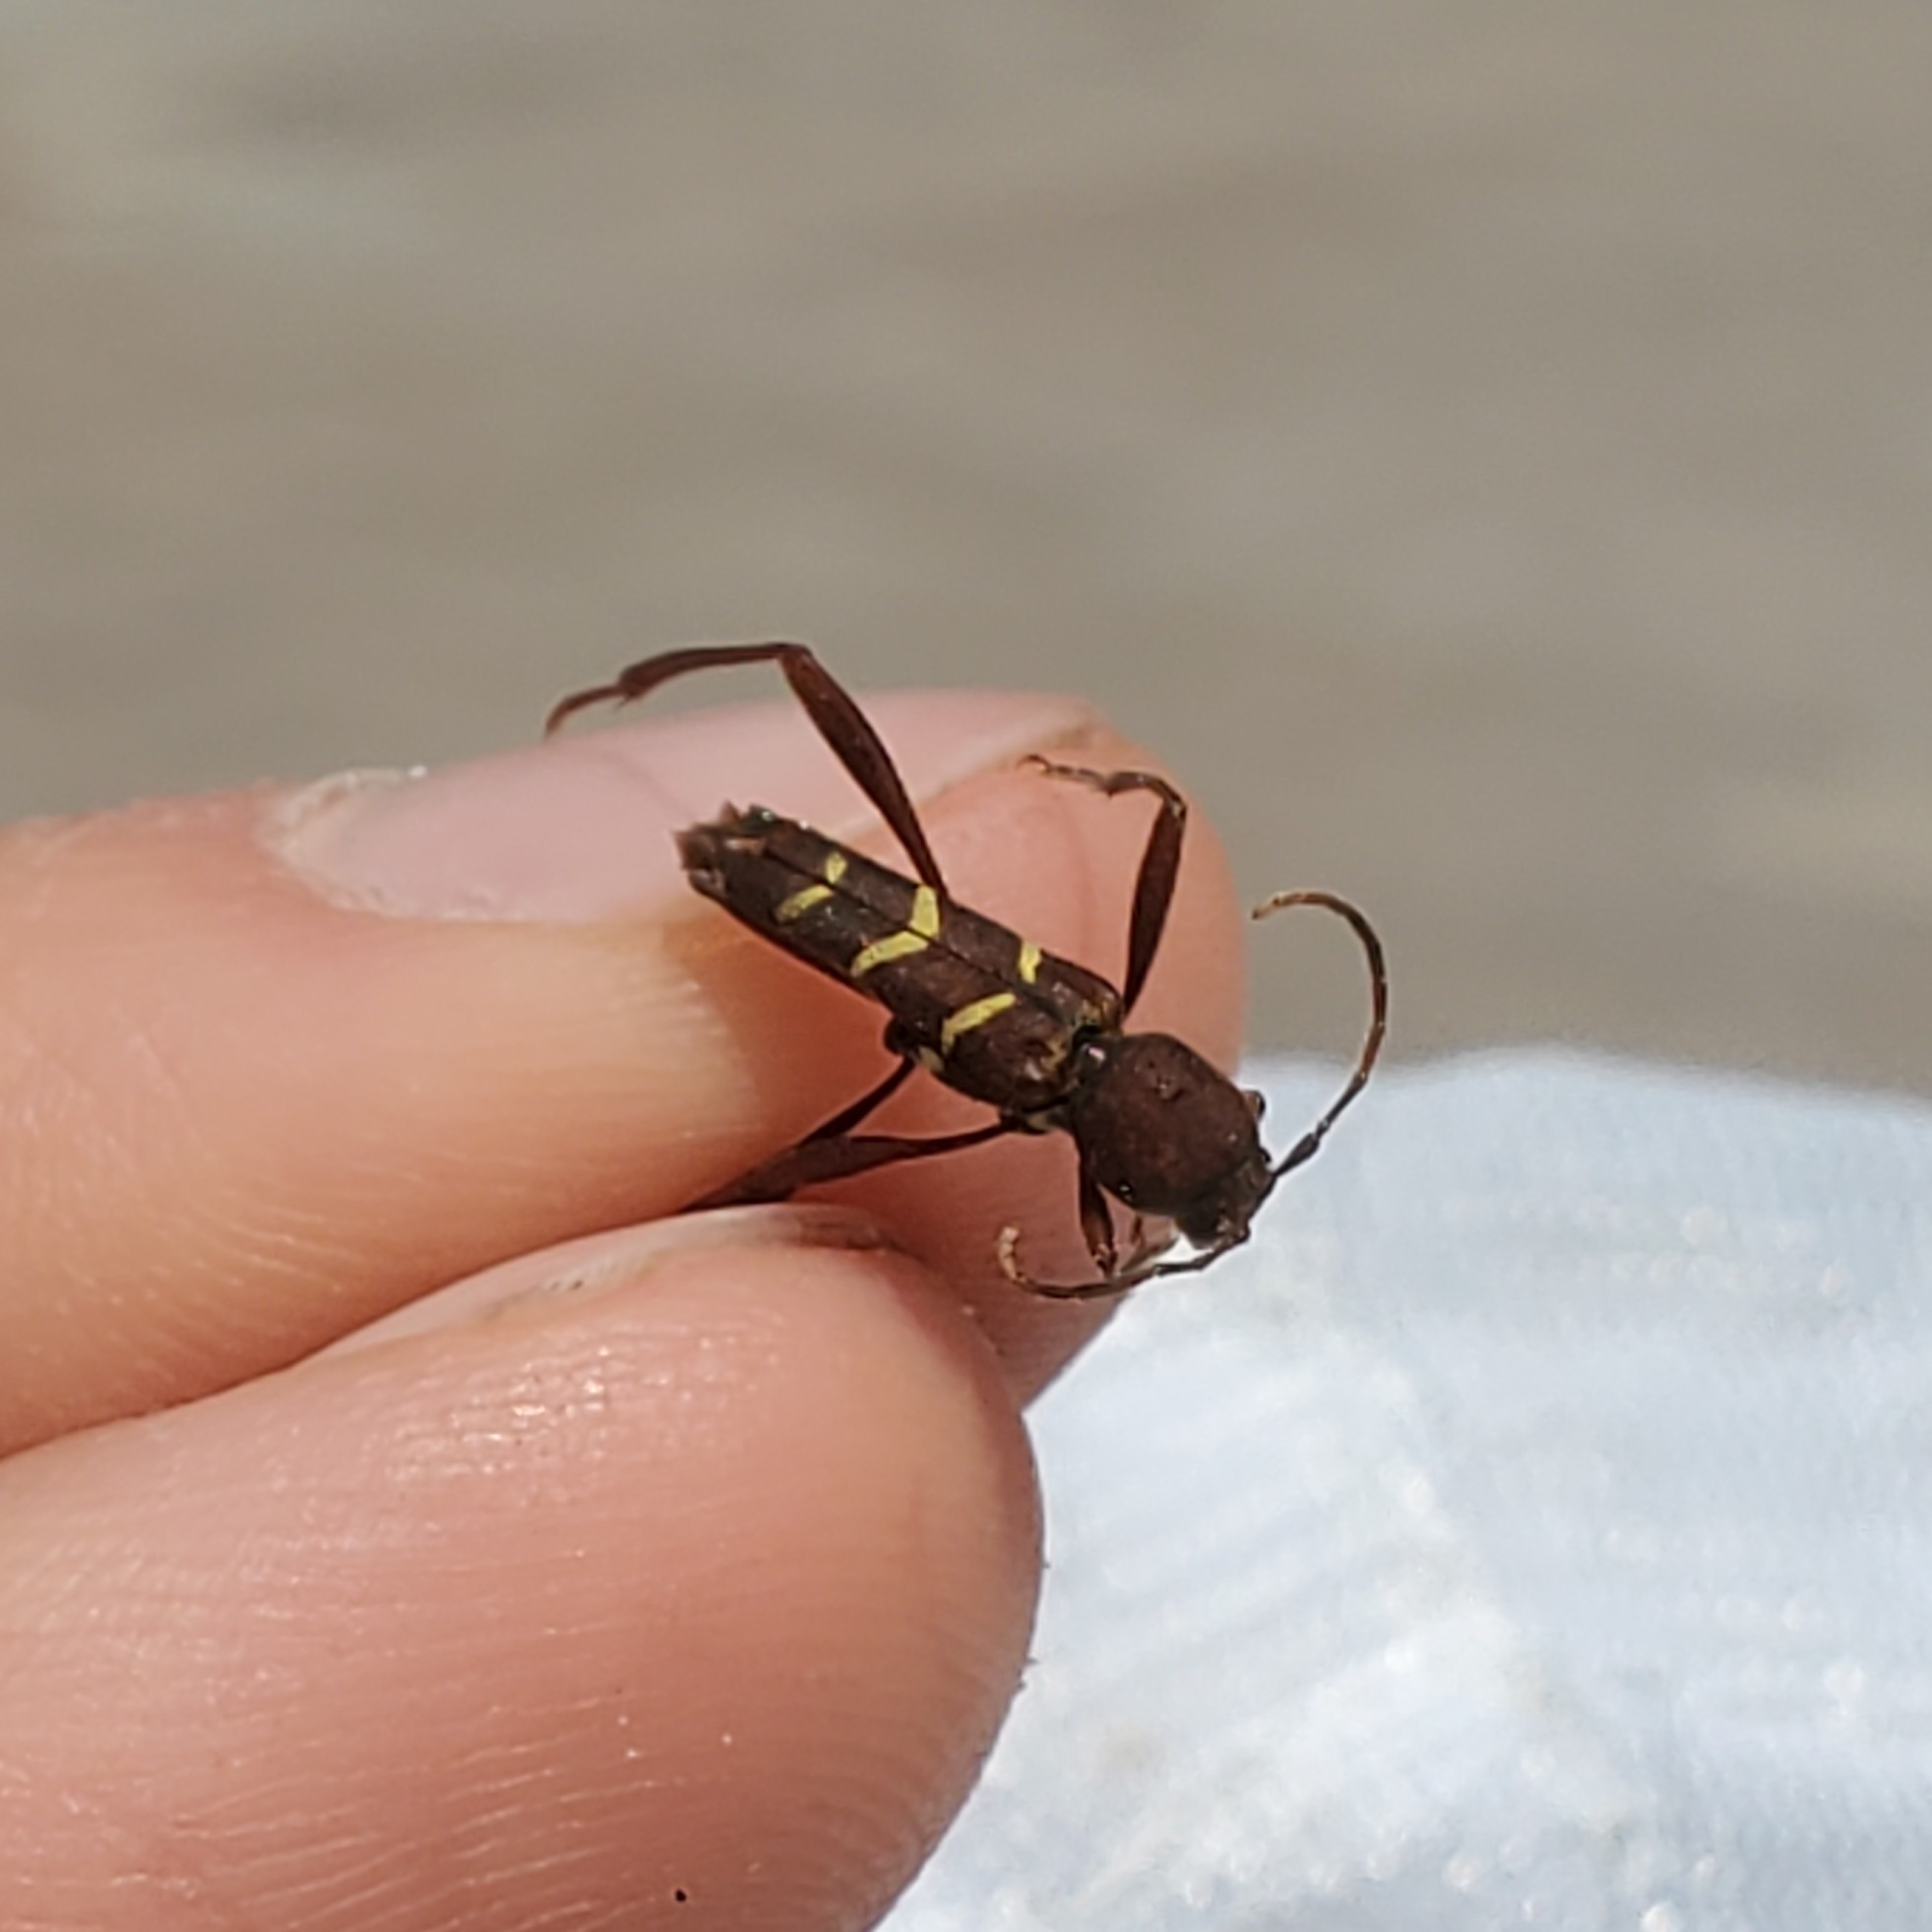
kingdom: Animalia
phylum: Arthropoda
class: Insecta
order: Coleoptera
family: Cerambycidae
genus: Neoclytus
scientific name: Neoclytus acuminatus
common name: Read-headed ash borer
